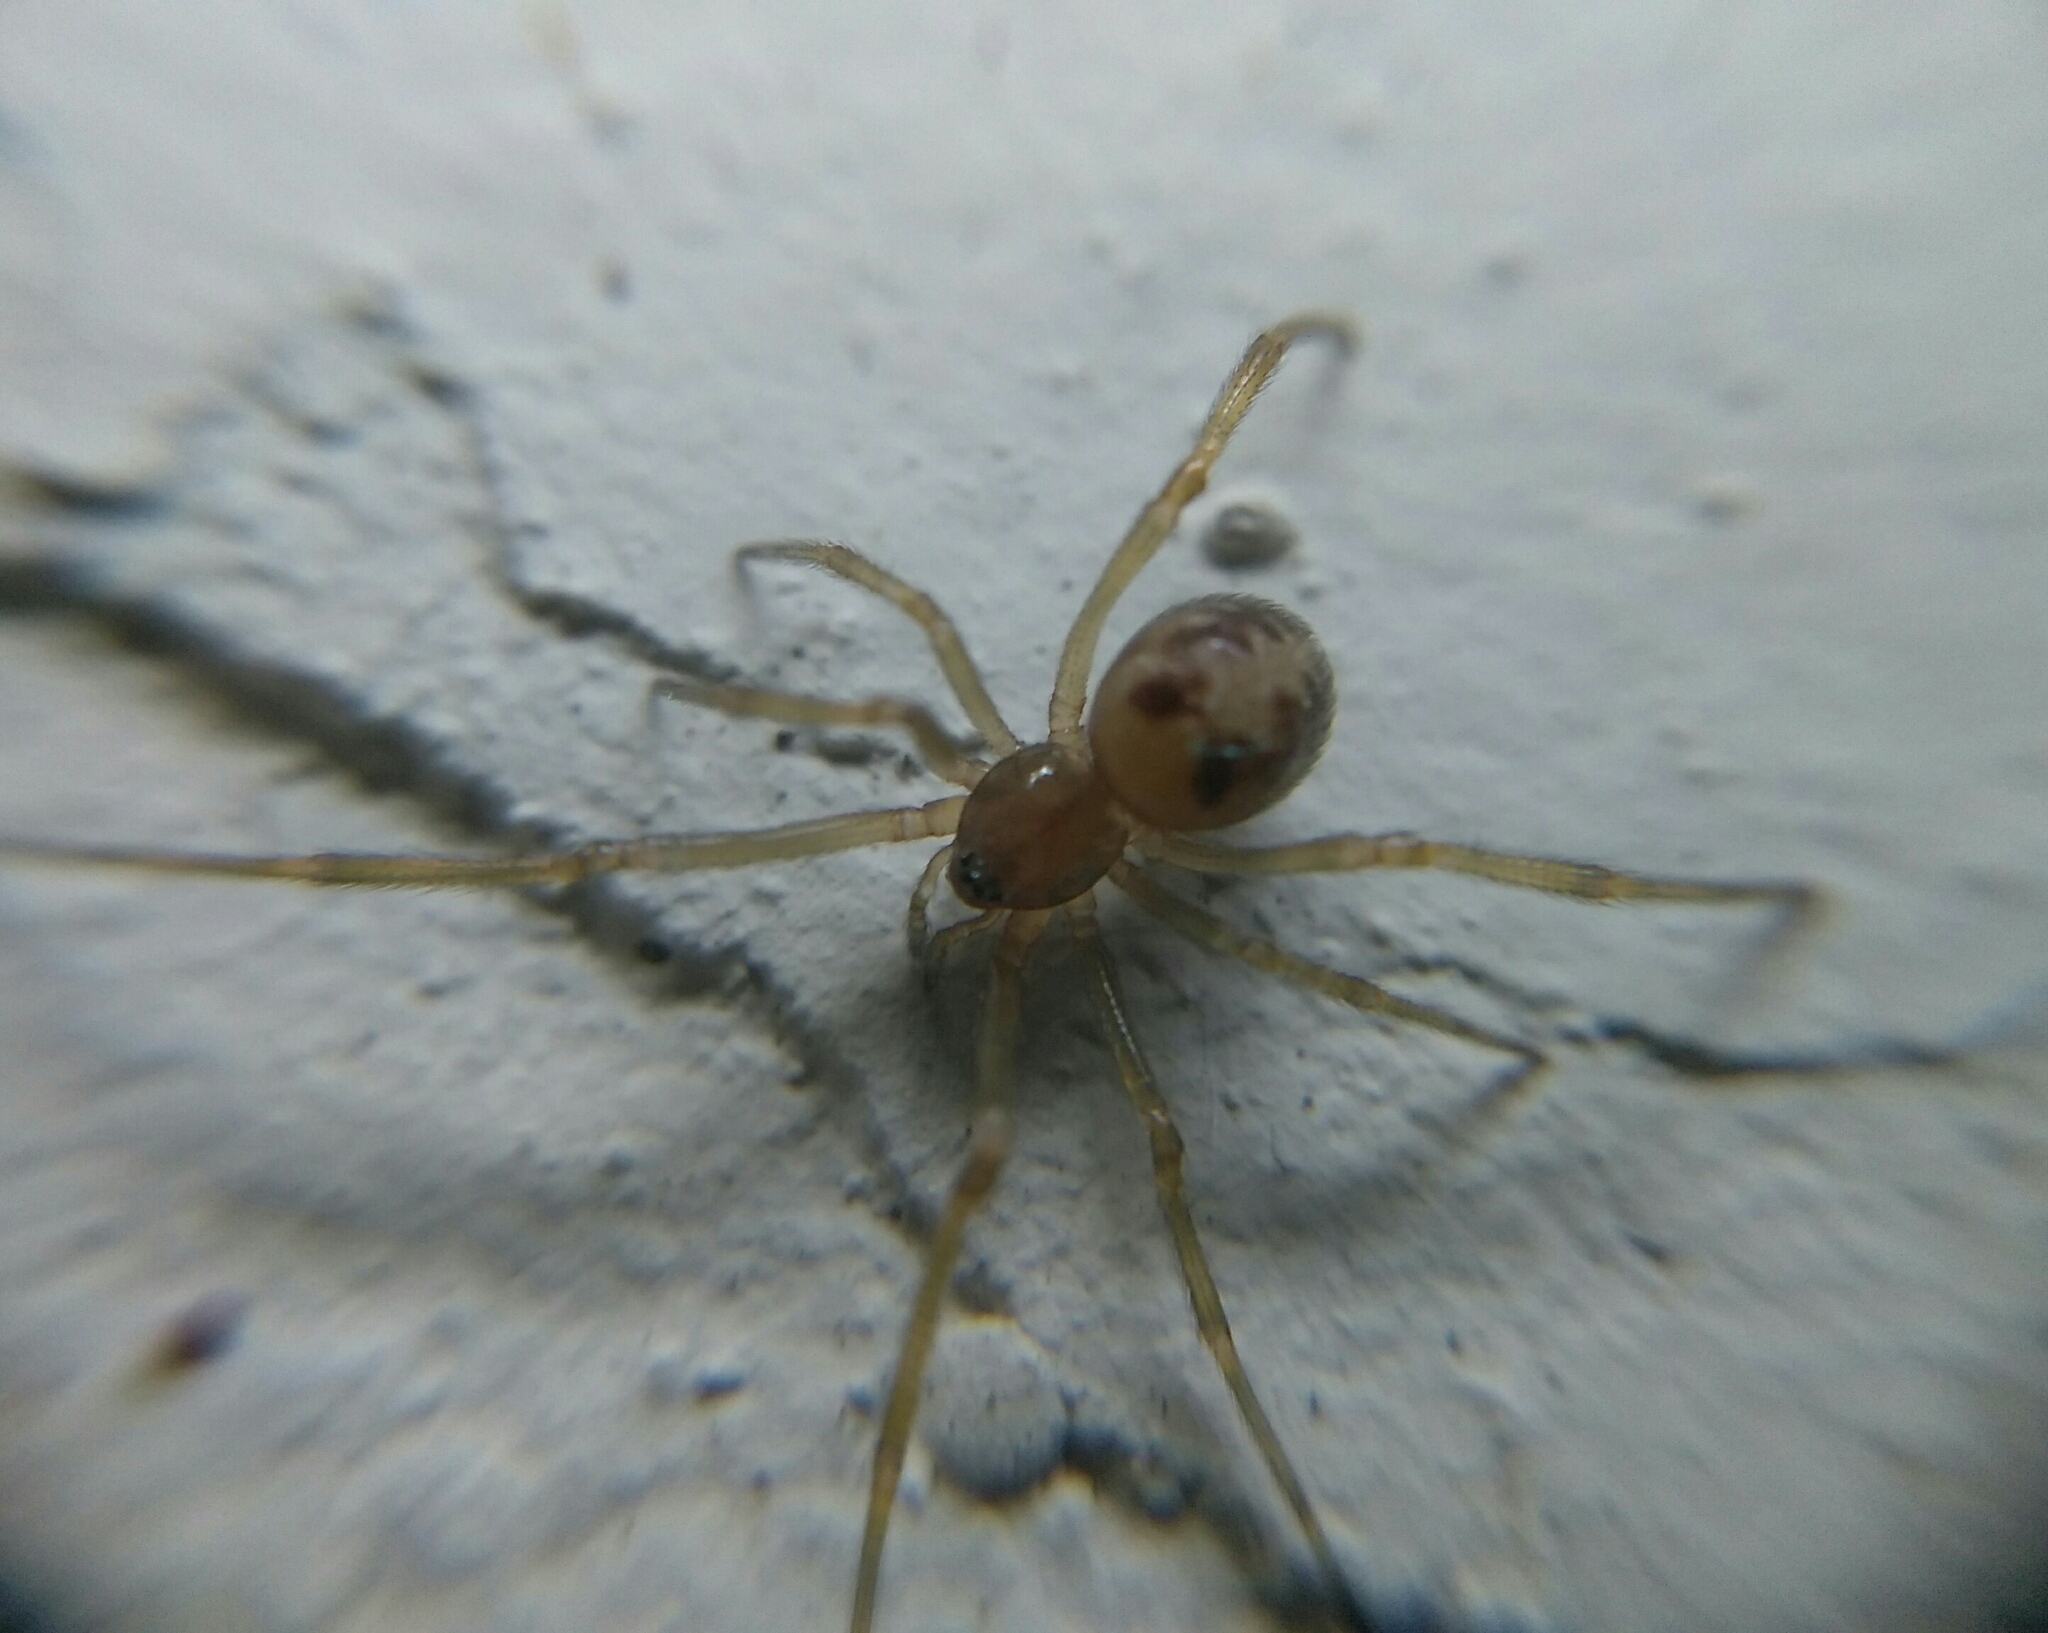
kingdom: Animalia
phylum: Arthropoda
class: Arachnida
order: Araneae
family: Theridiidae
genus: Steatoda
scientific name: Steatoda triangulosa
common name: Triangulate bud spider
